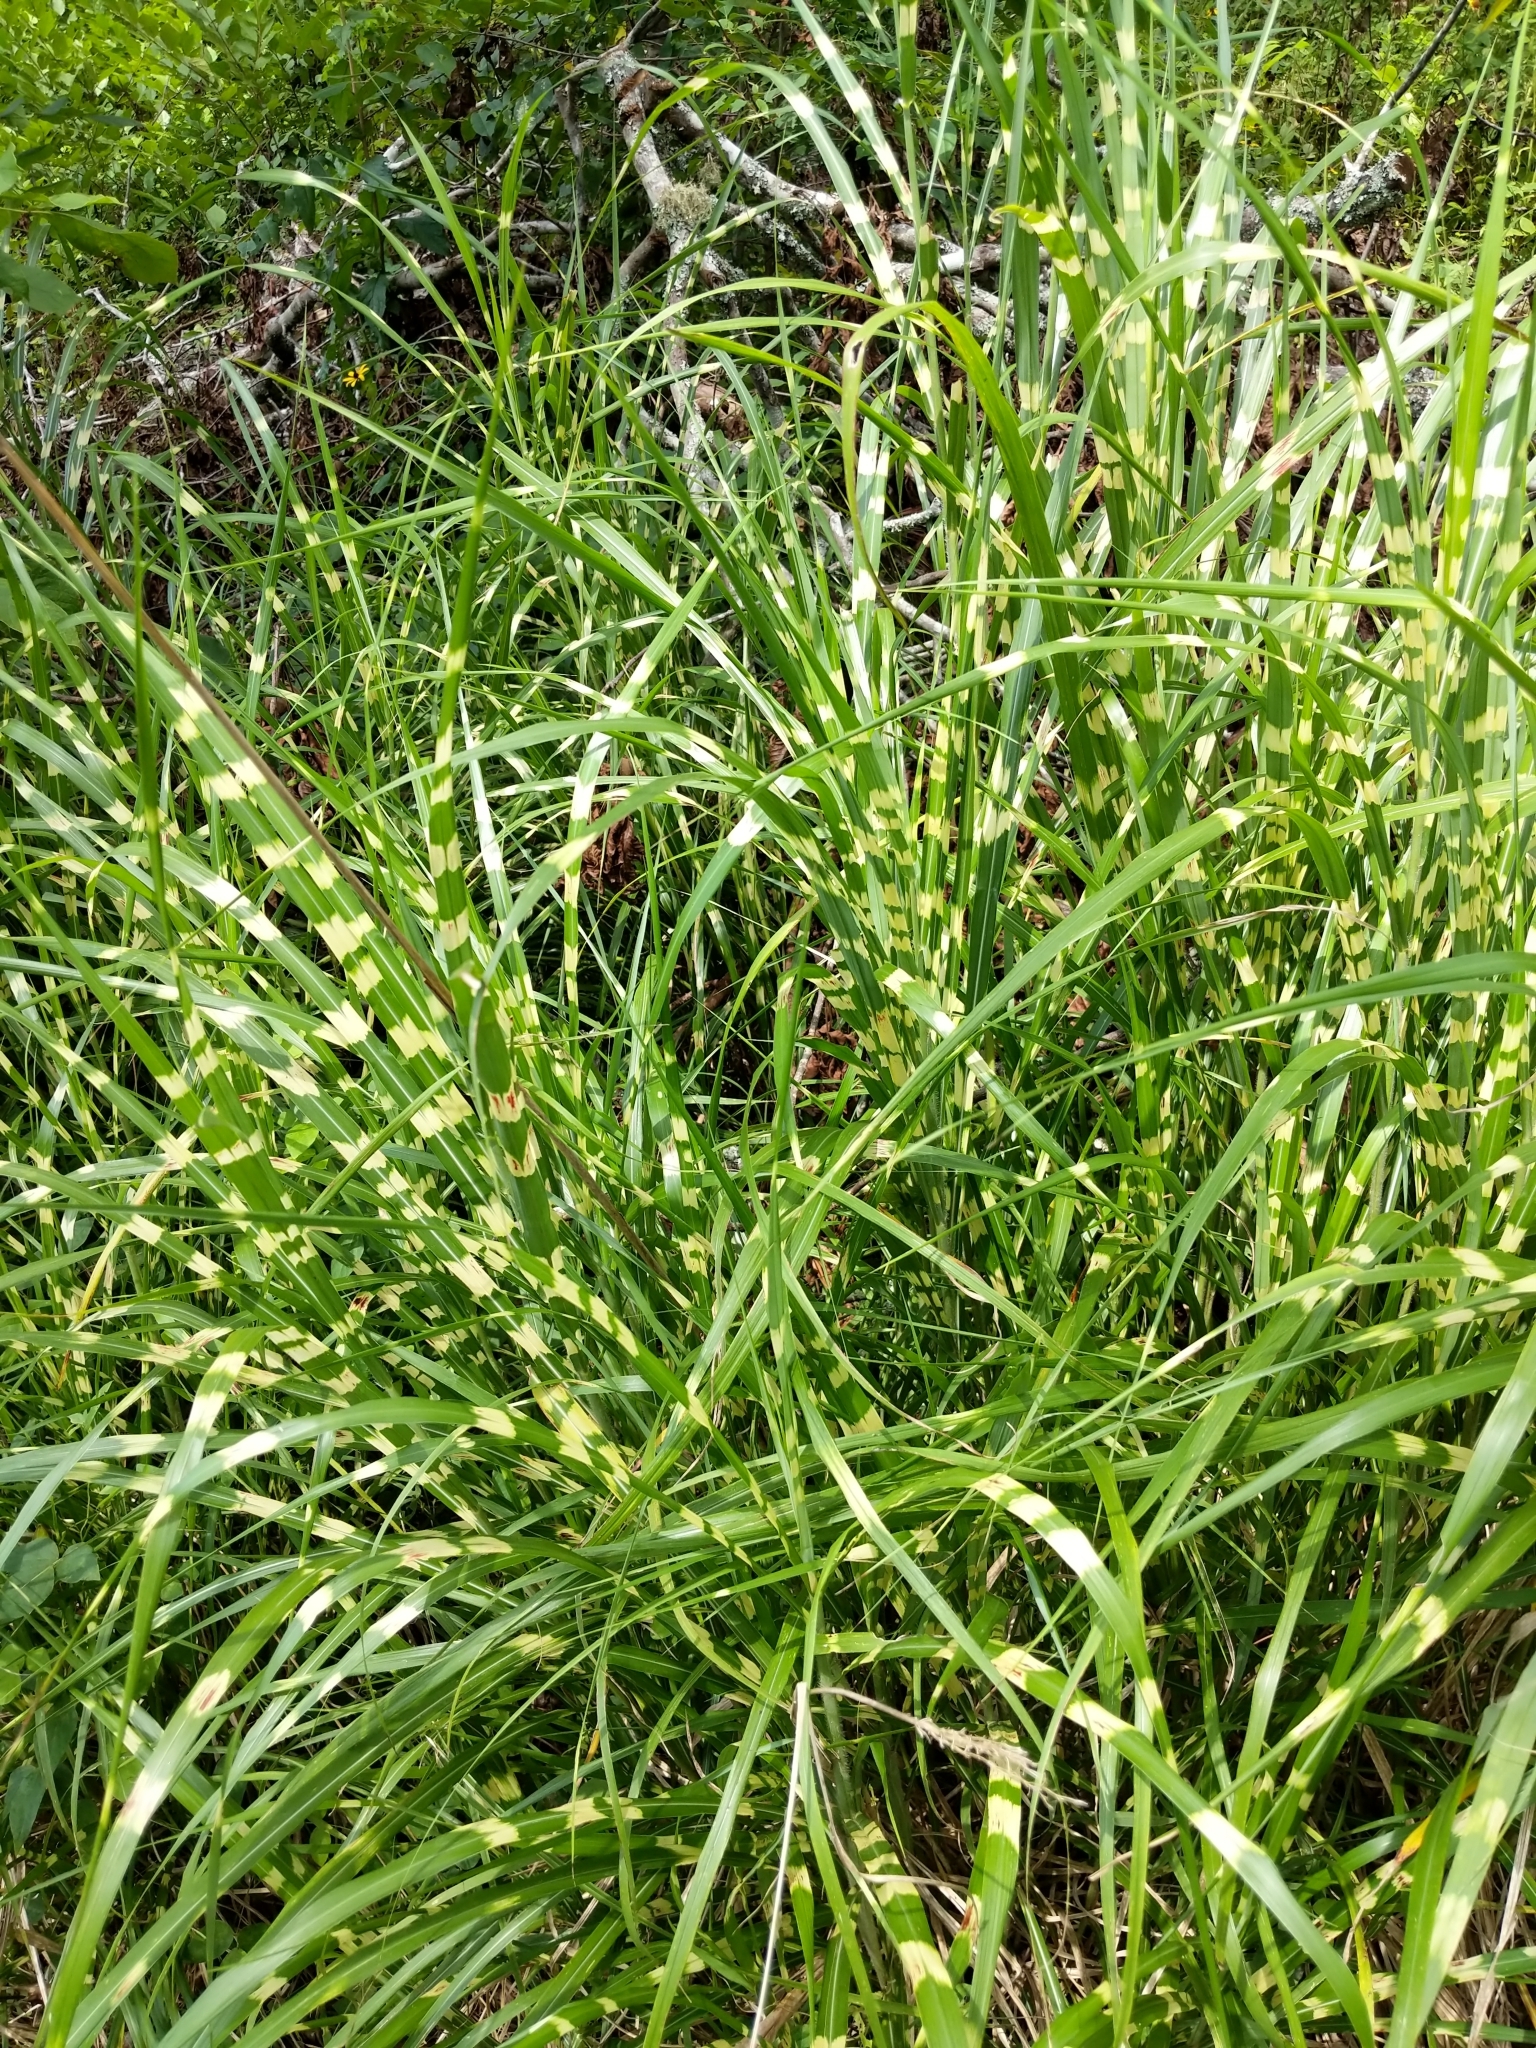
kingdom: Plantae
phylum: Tracheophyta
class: Liliopsida
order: Poales
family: Poaceae
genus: Miscanthus
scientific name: Miscanthus sinensis
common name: Chinese silvergrass
